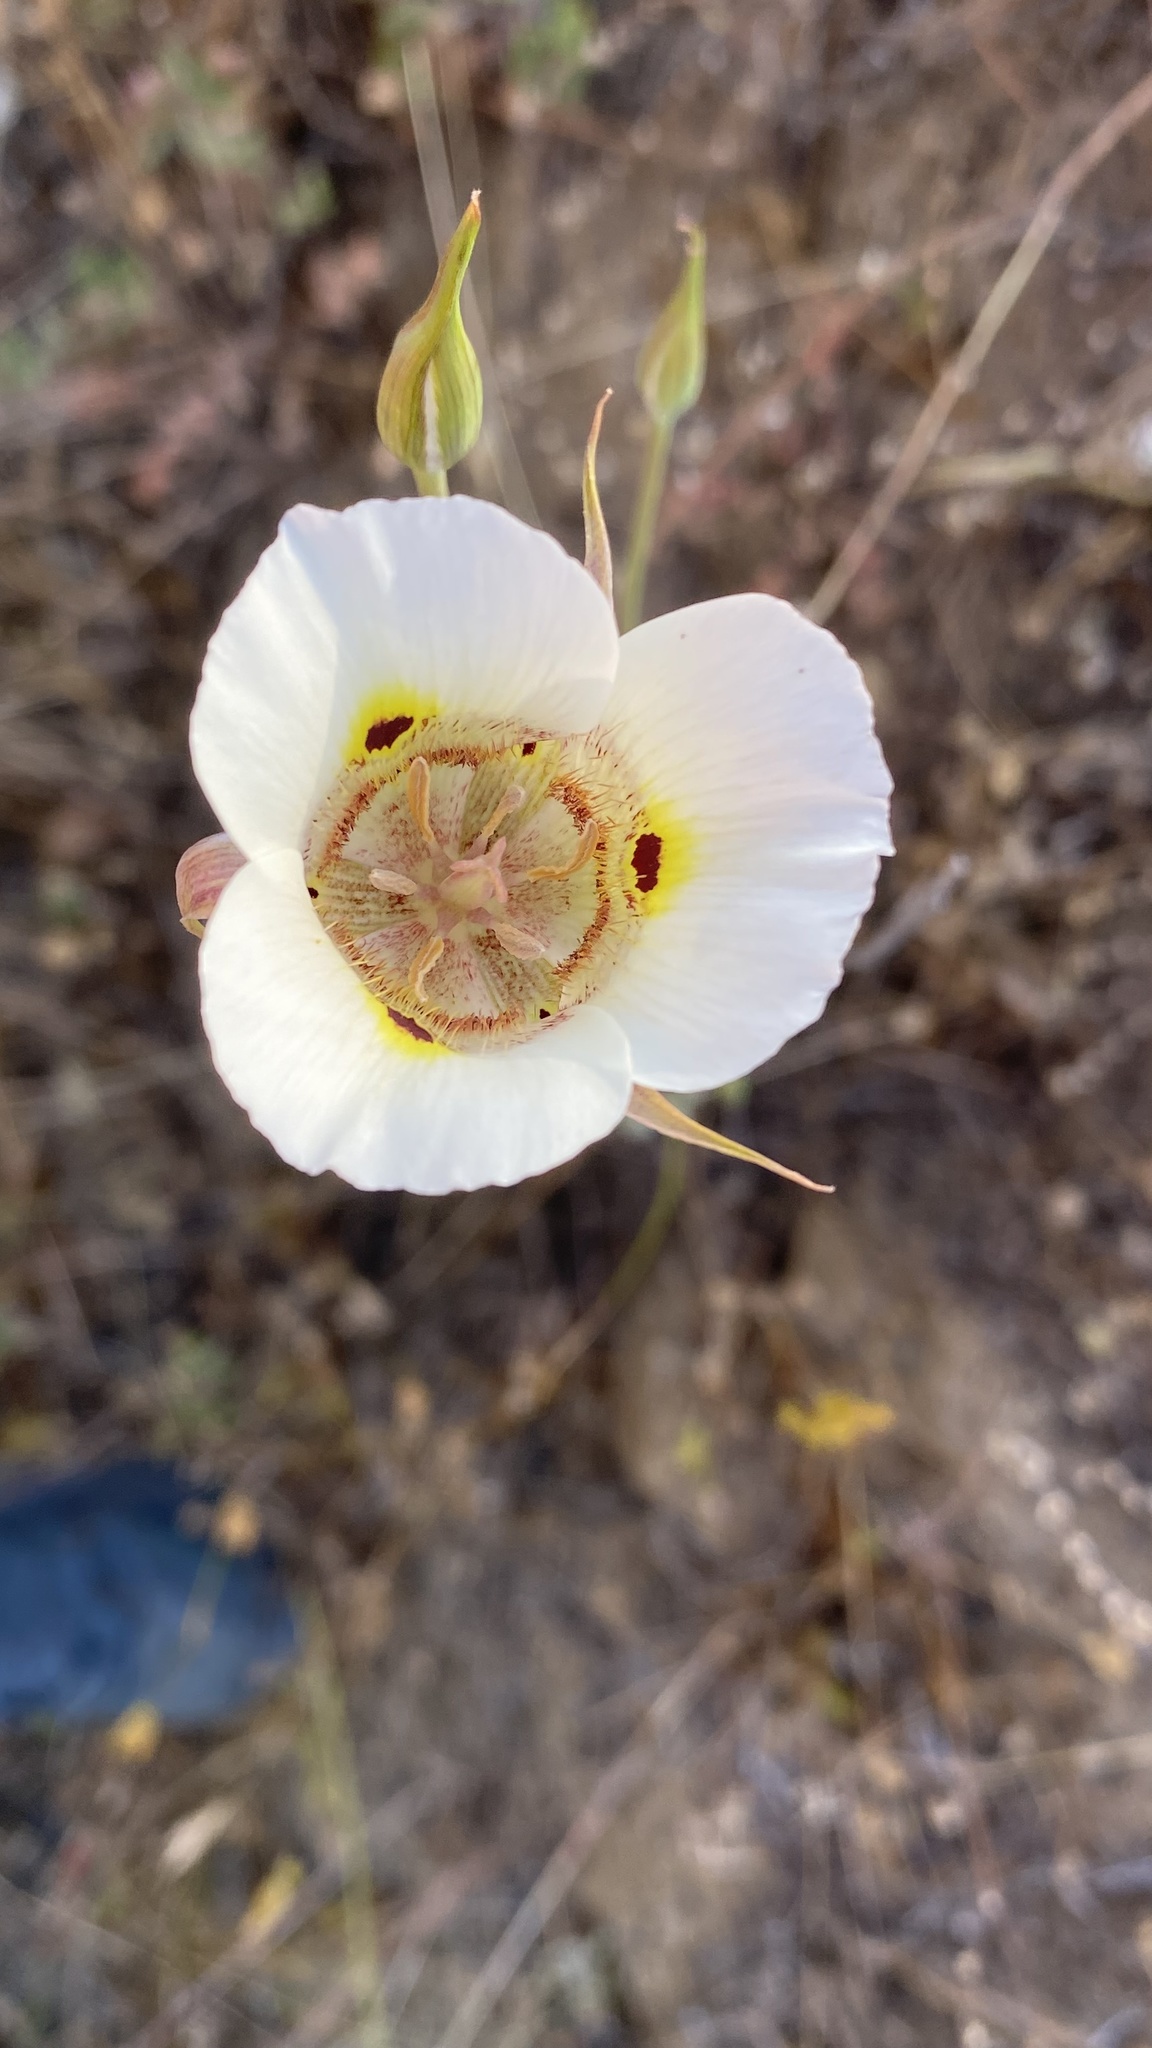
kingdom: Plantae
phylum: Tracheophyta
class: Liliopsida
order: Liliales
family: Liliaceae
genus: Calochortus
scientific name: Calochortus superbus
